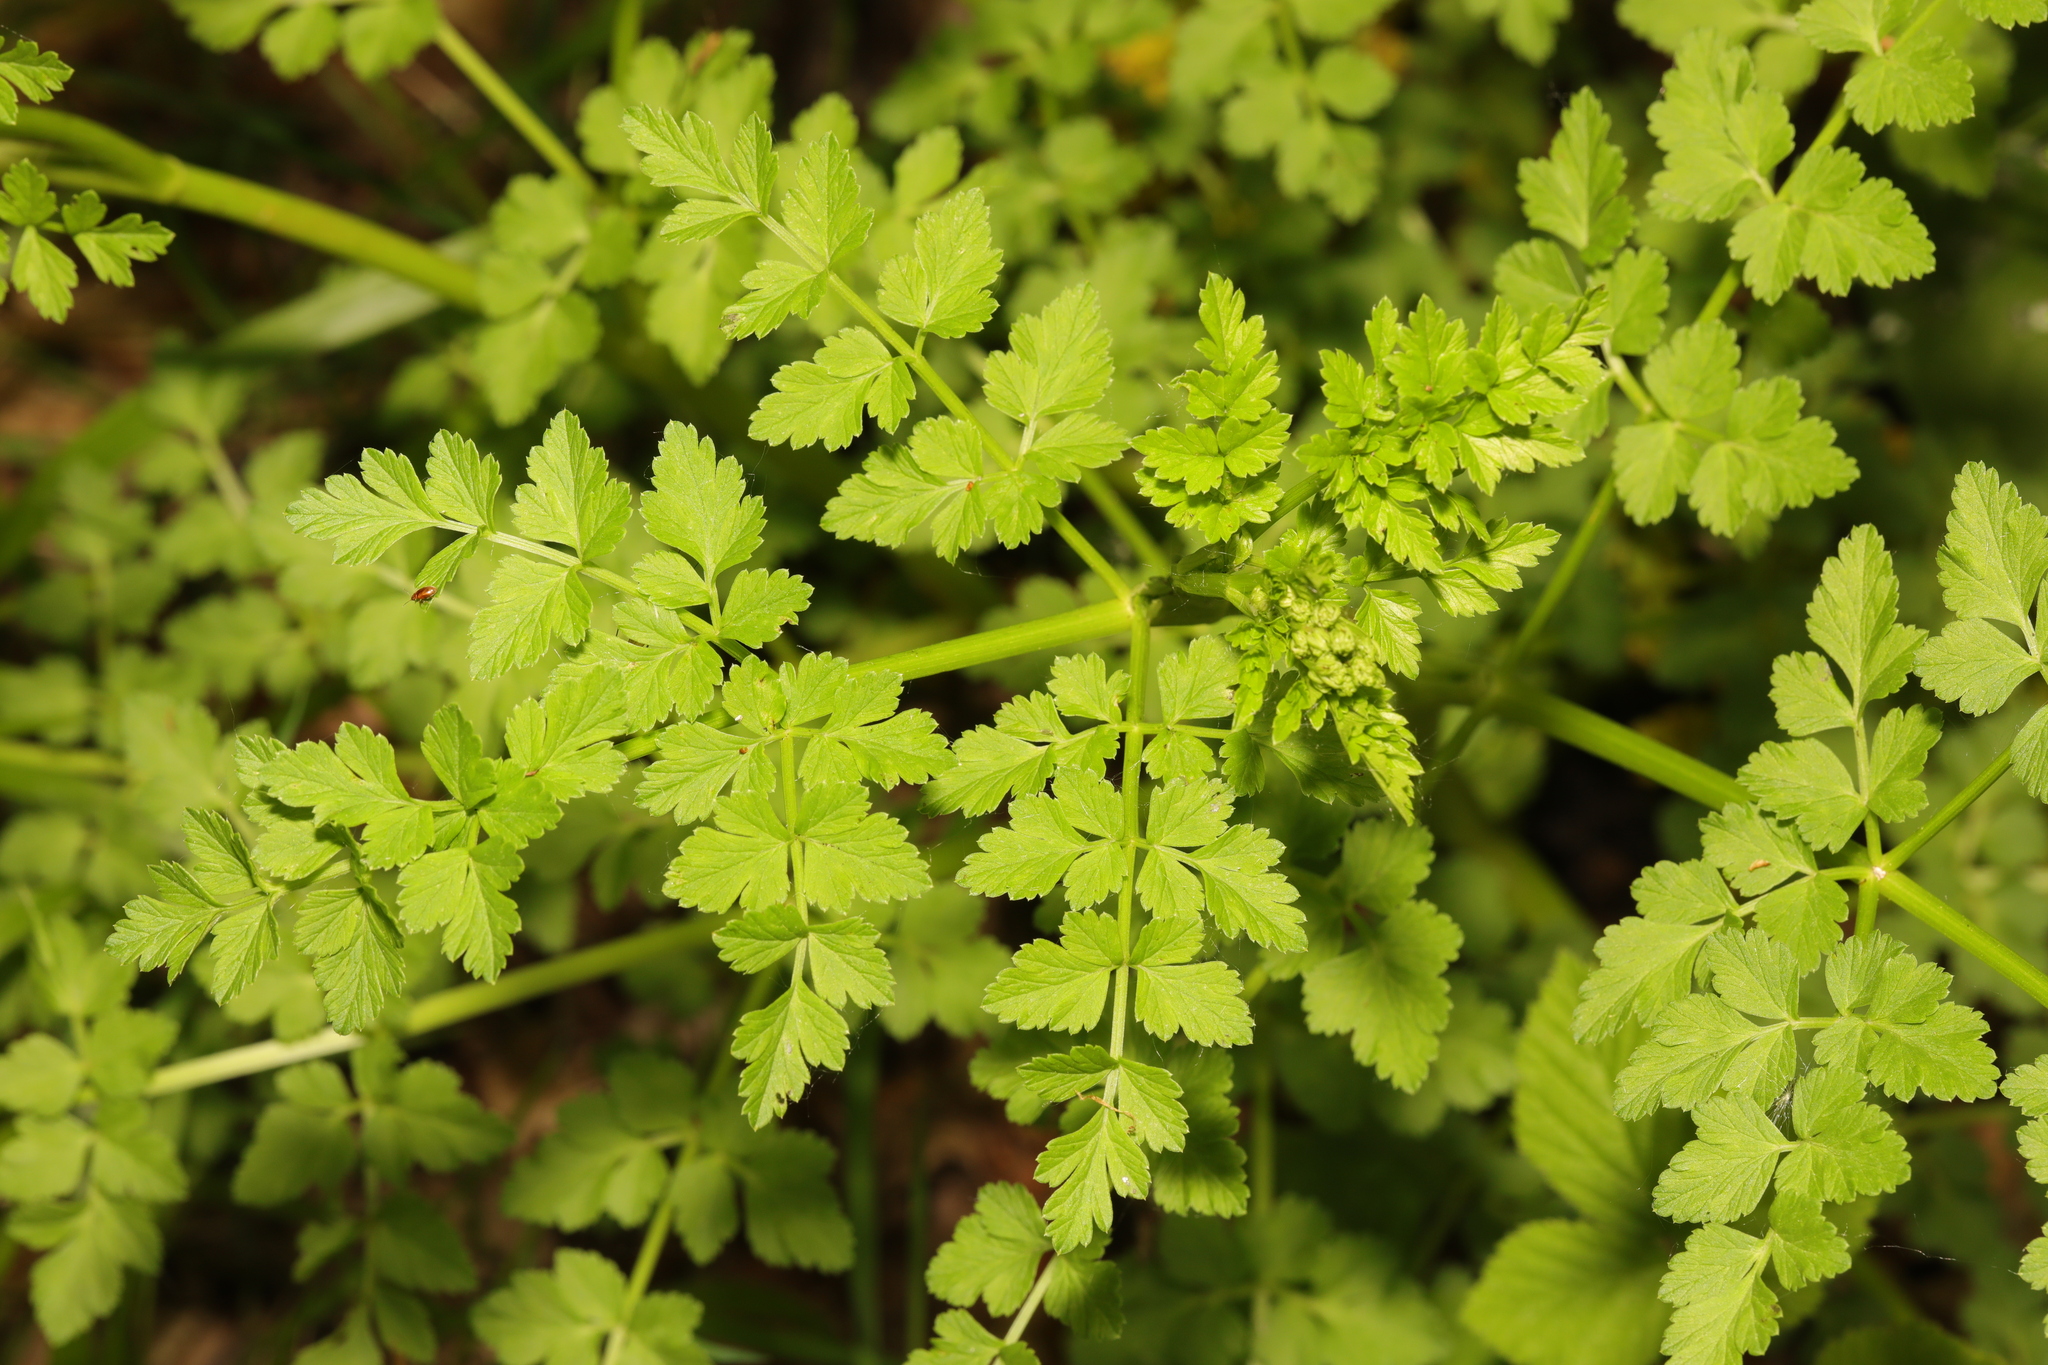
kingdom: Plantae
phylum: Tracheophyta
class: Magnoliopsida
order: Apiales
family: Apiaceae
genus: Oenanthe
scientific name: Oenanthe crocata
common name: Hemlock water-dropwort
